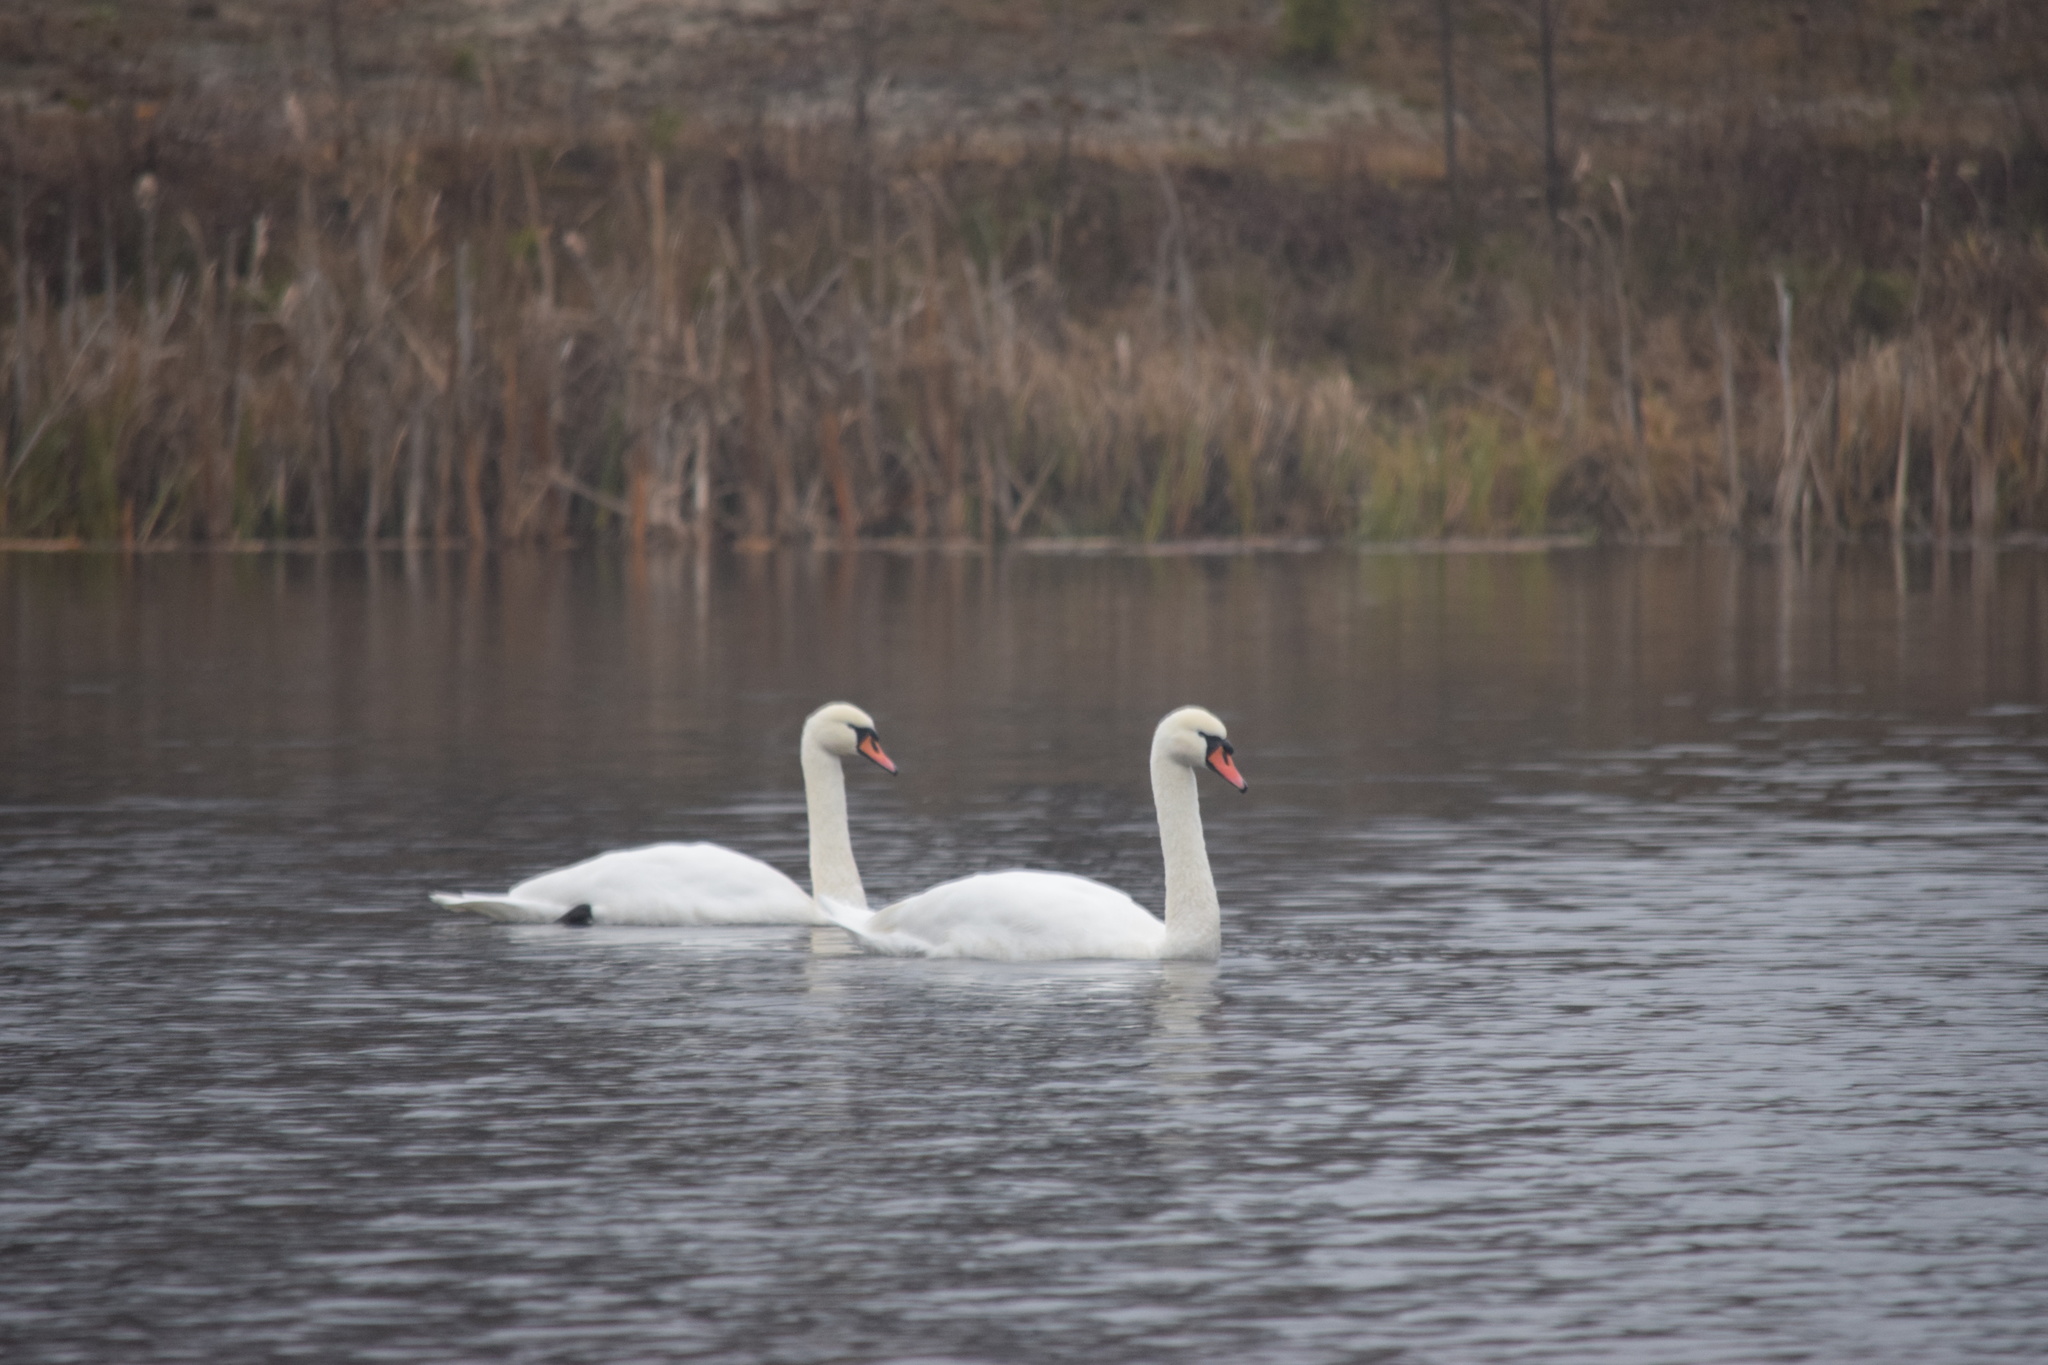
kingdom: Animalia
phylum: Chordata
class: Aves
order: Anseriformes
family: Anatidae
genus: Cygnus
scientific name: Cygnus olor
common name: Mute swan
